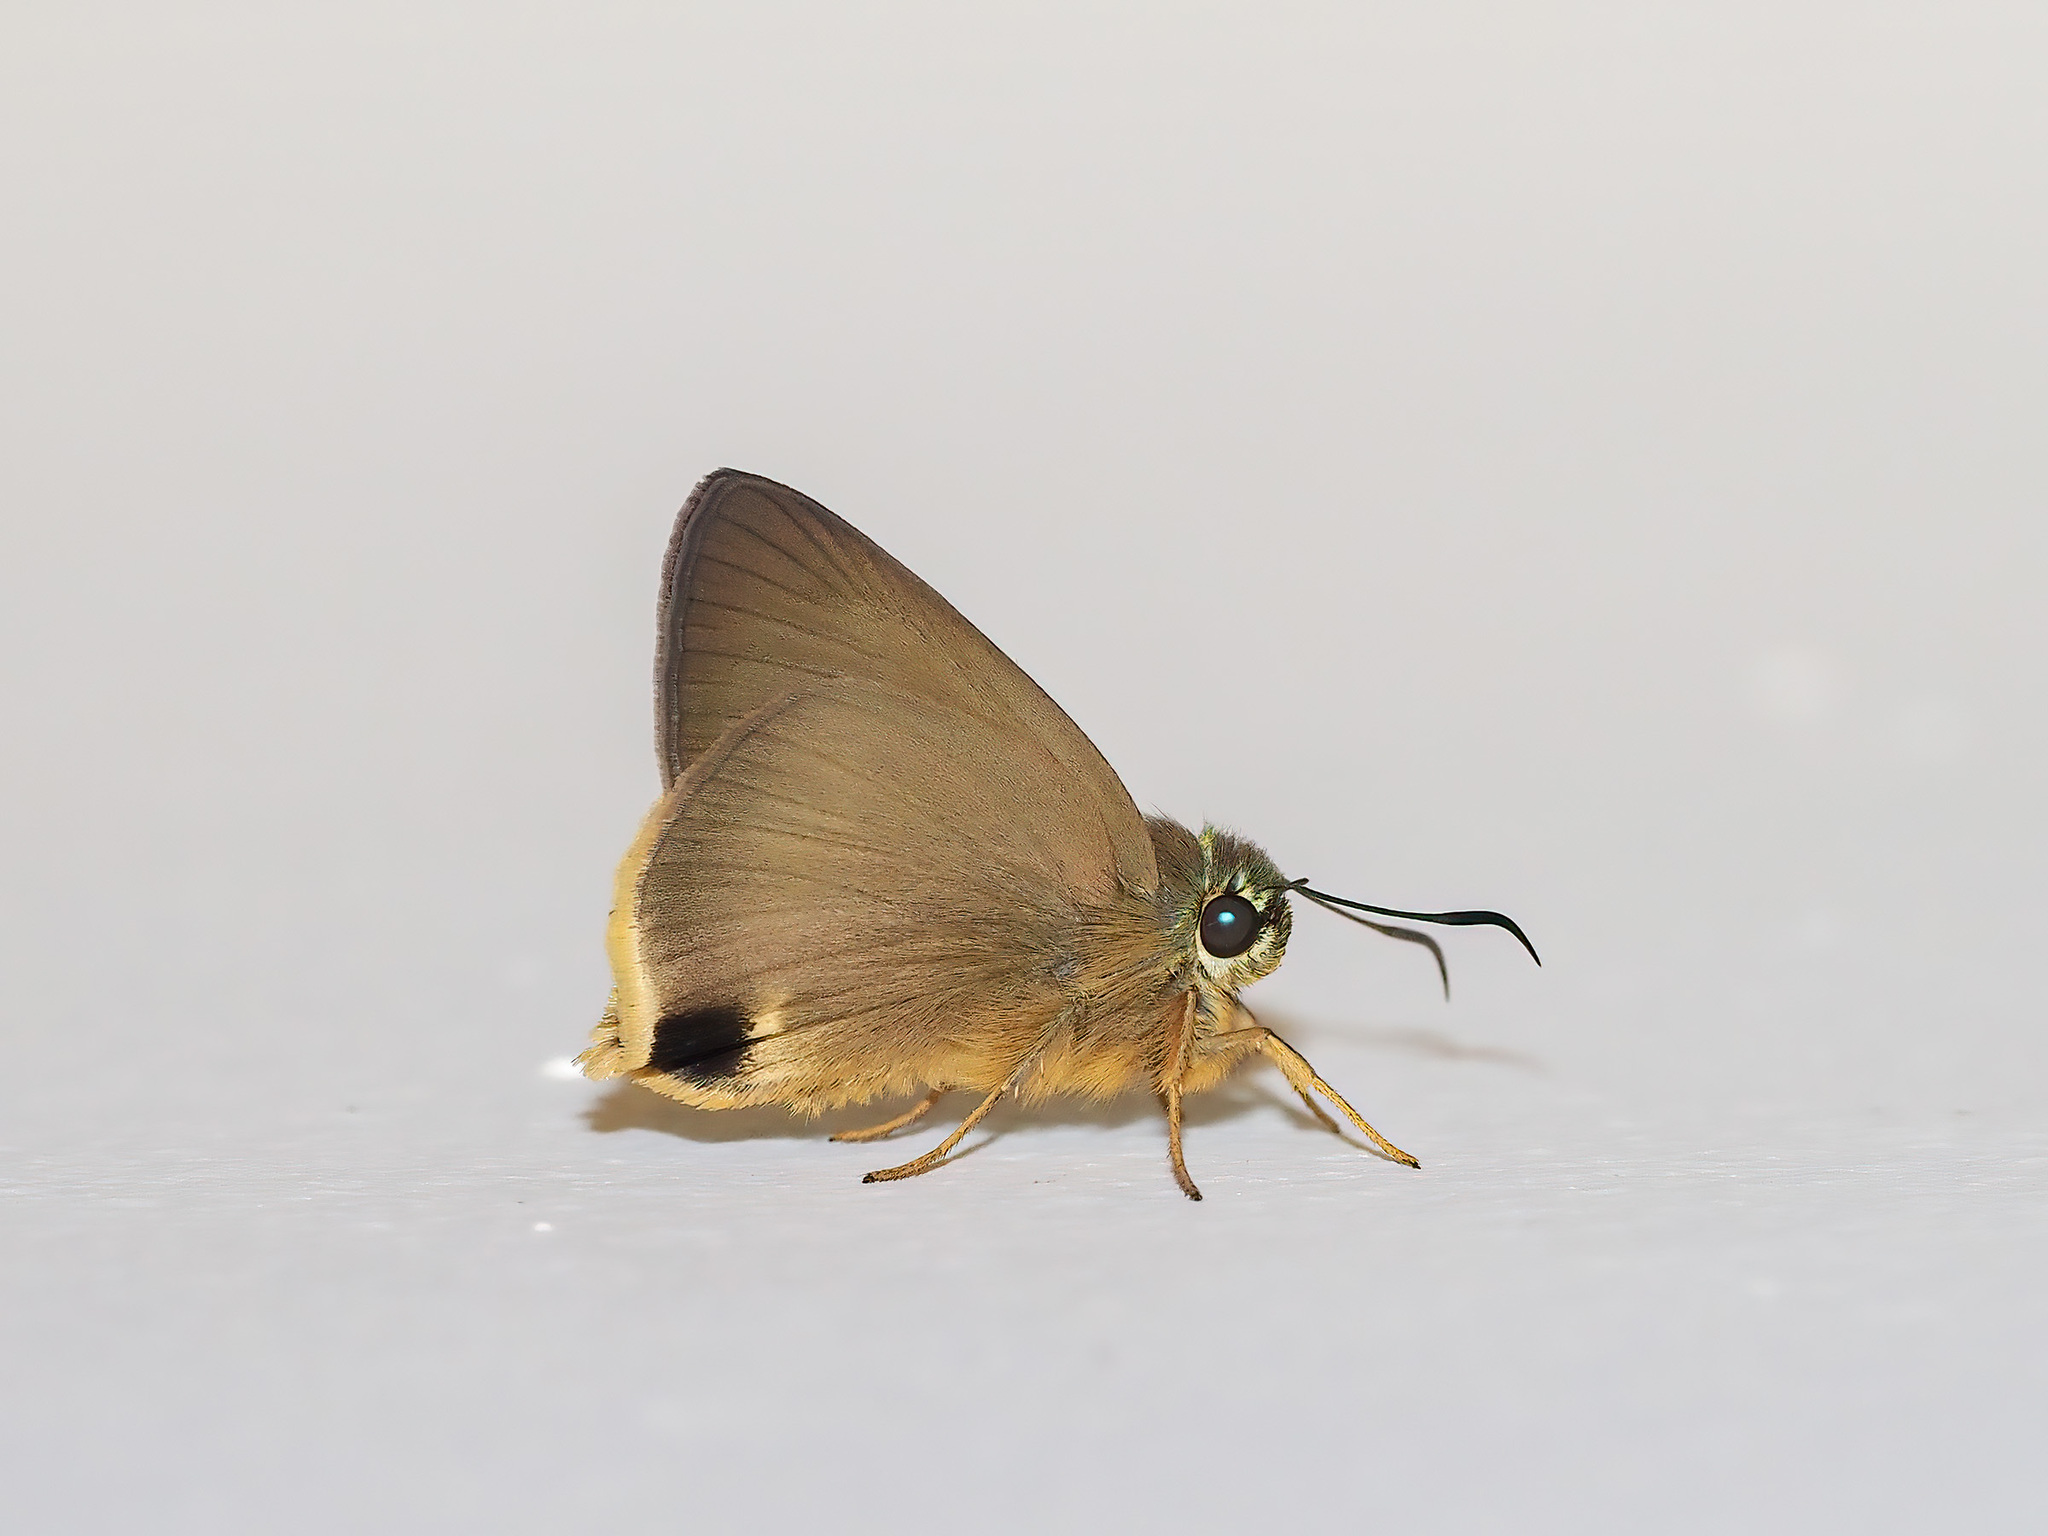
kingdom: Animalia
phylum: Arthropoda
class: Insecta
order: Lepidoptera
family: Hesperiidae
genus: Hasora
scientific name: Hasora mus
